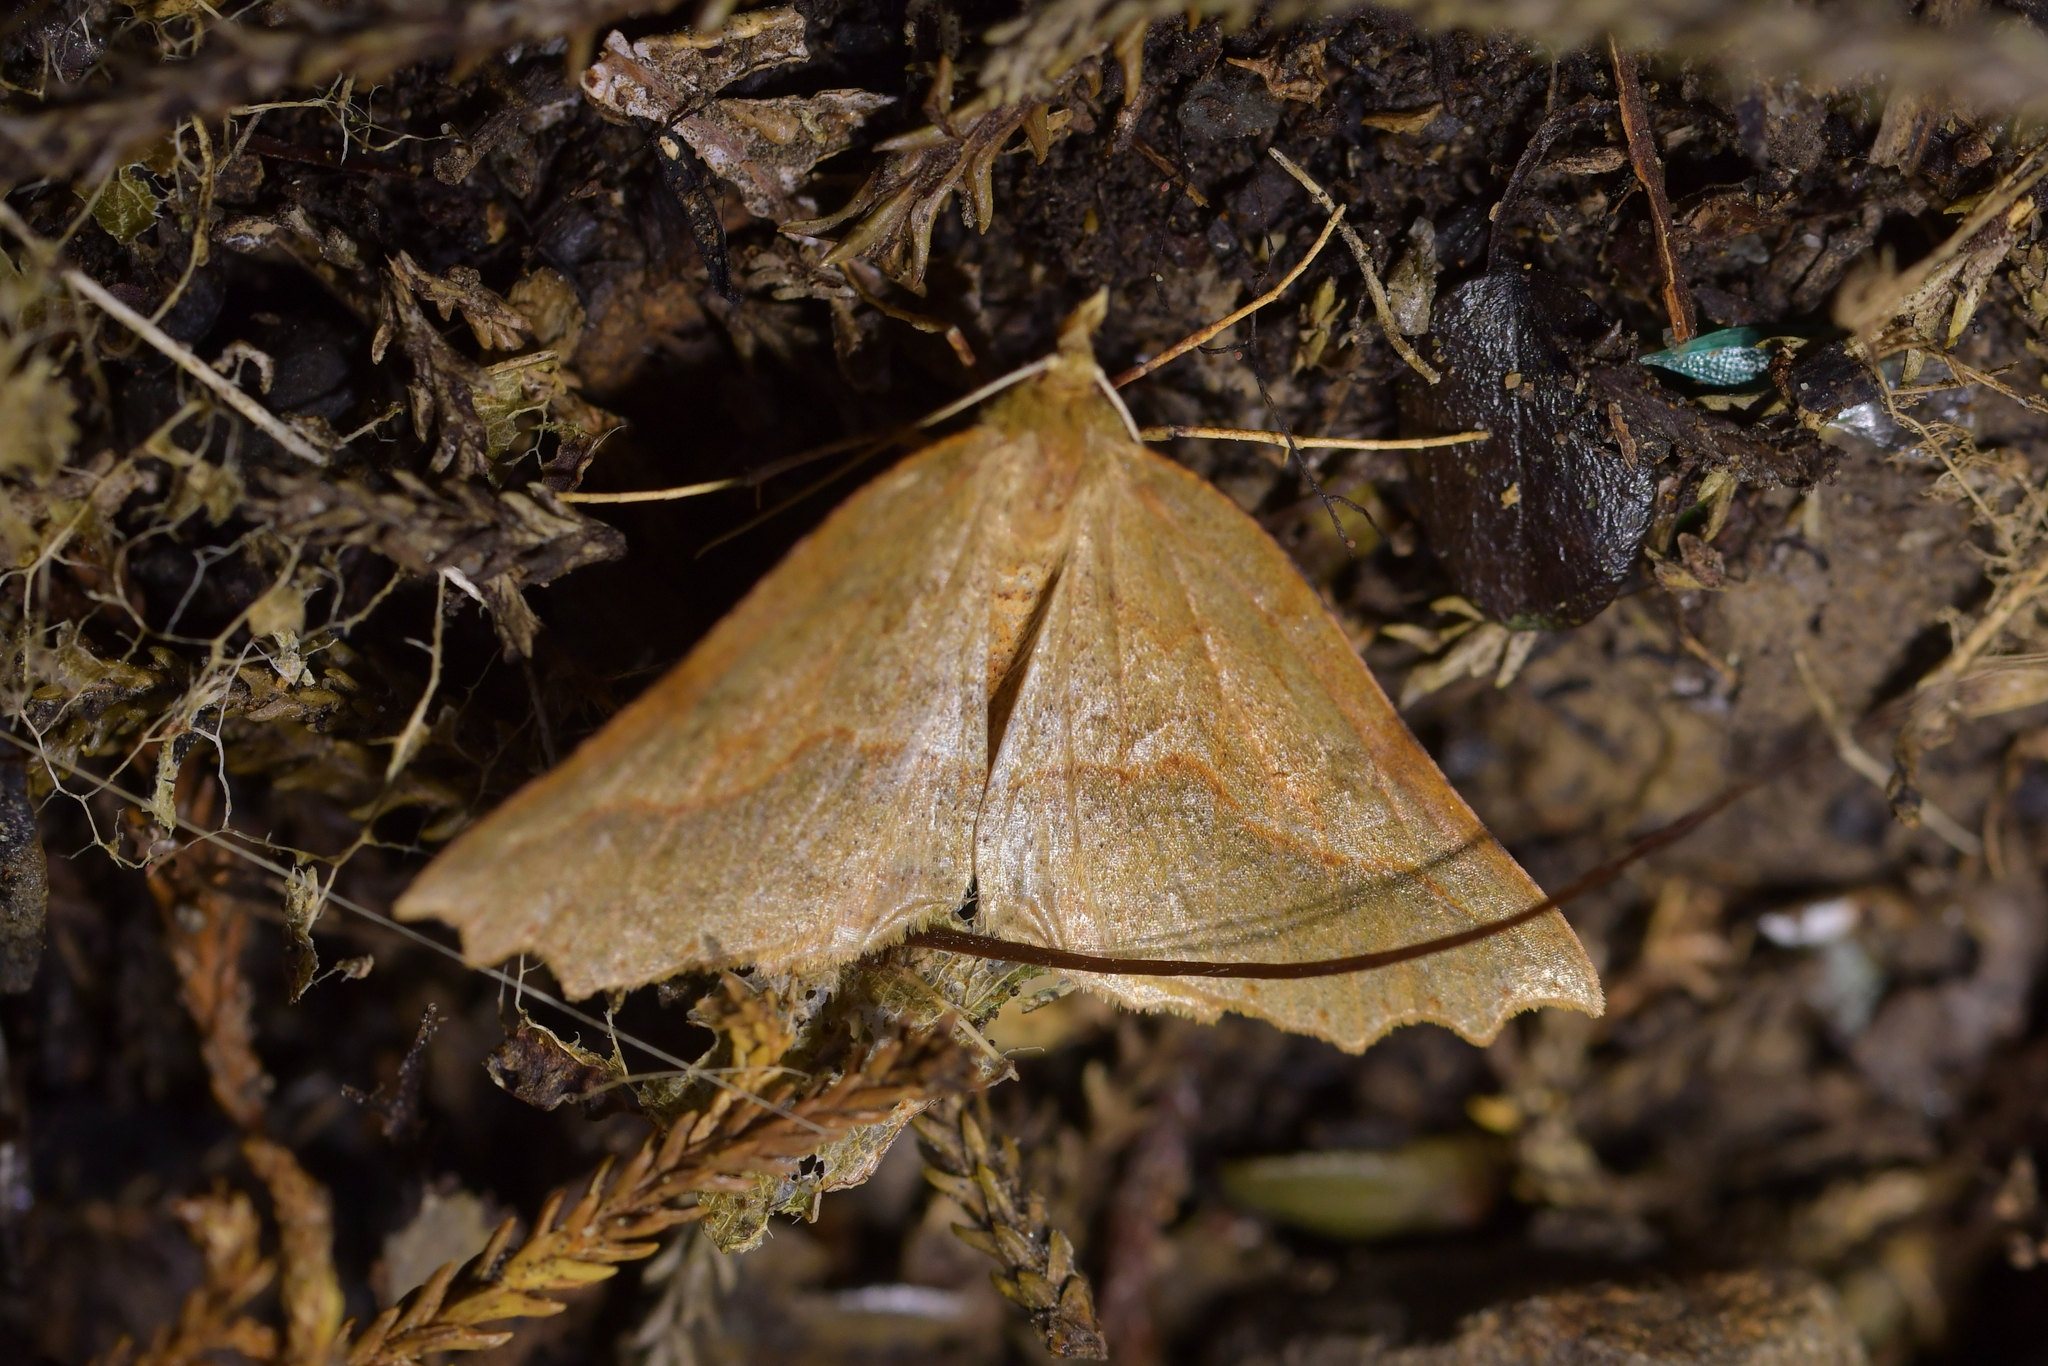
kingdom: Animalia
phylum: Arthropoda
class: Insecta
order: Lepidoptera
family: Geometridae
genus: Ischalis
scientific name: Ischalis variabilis
